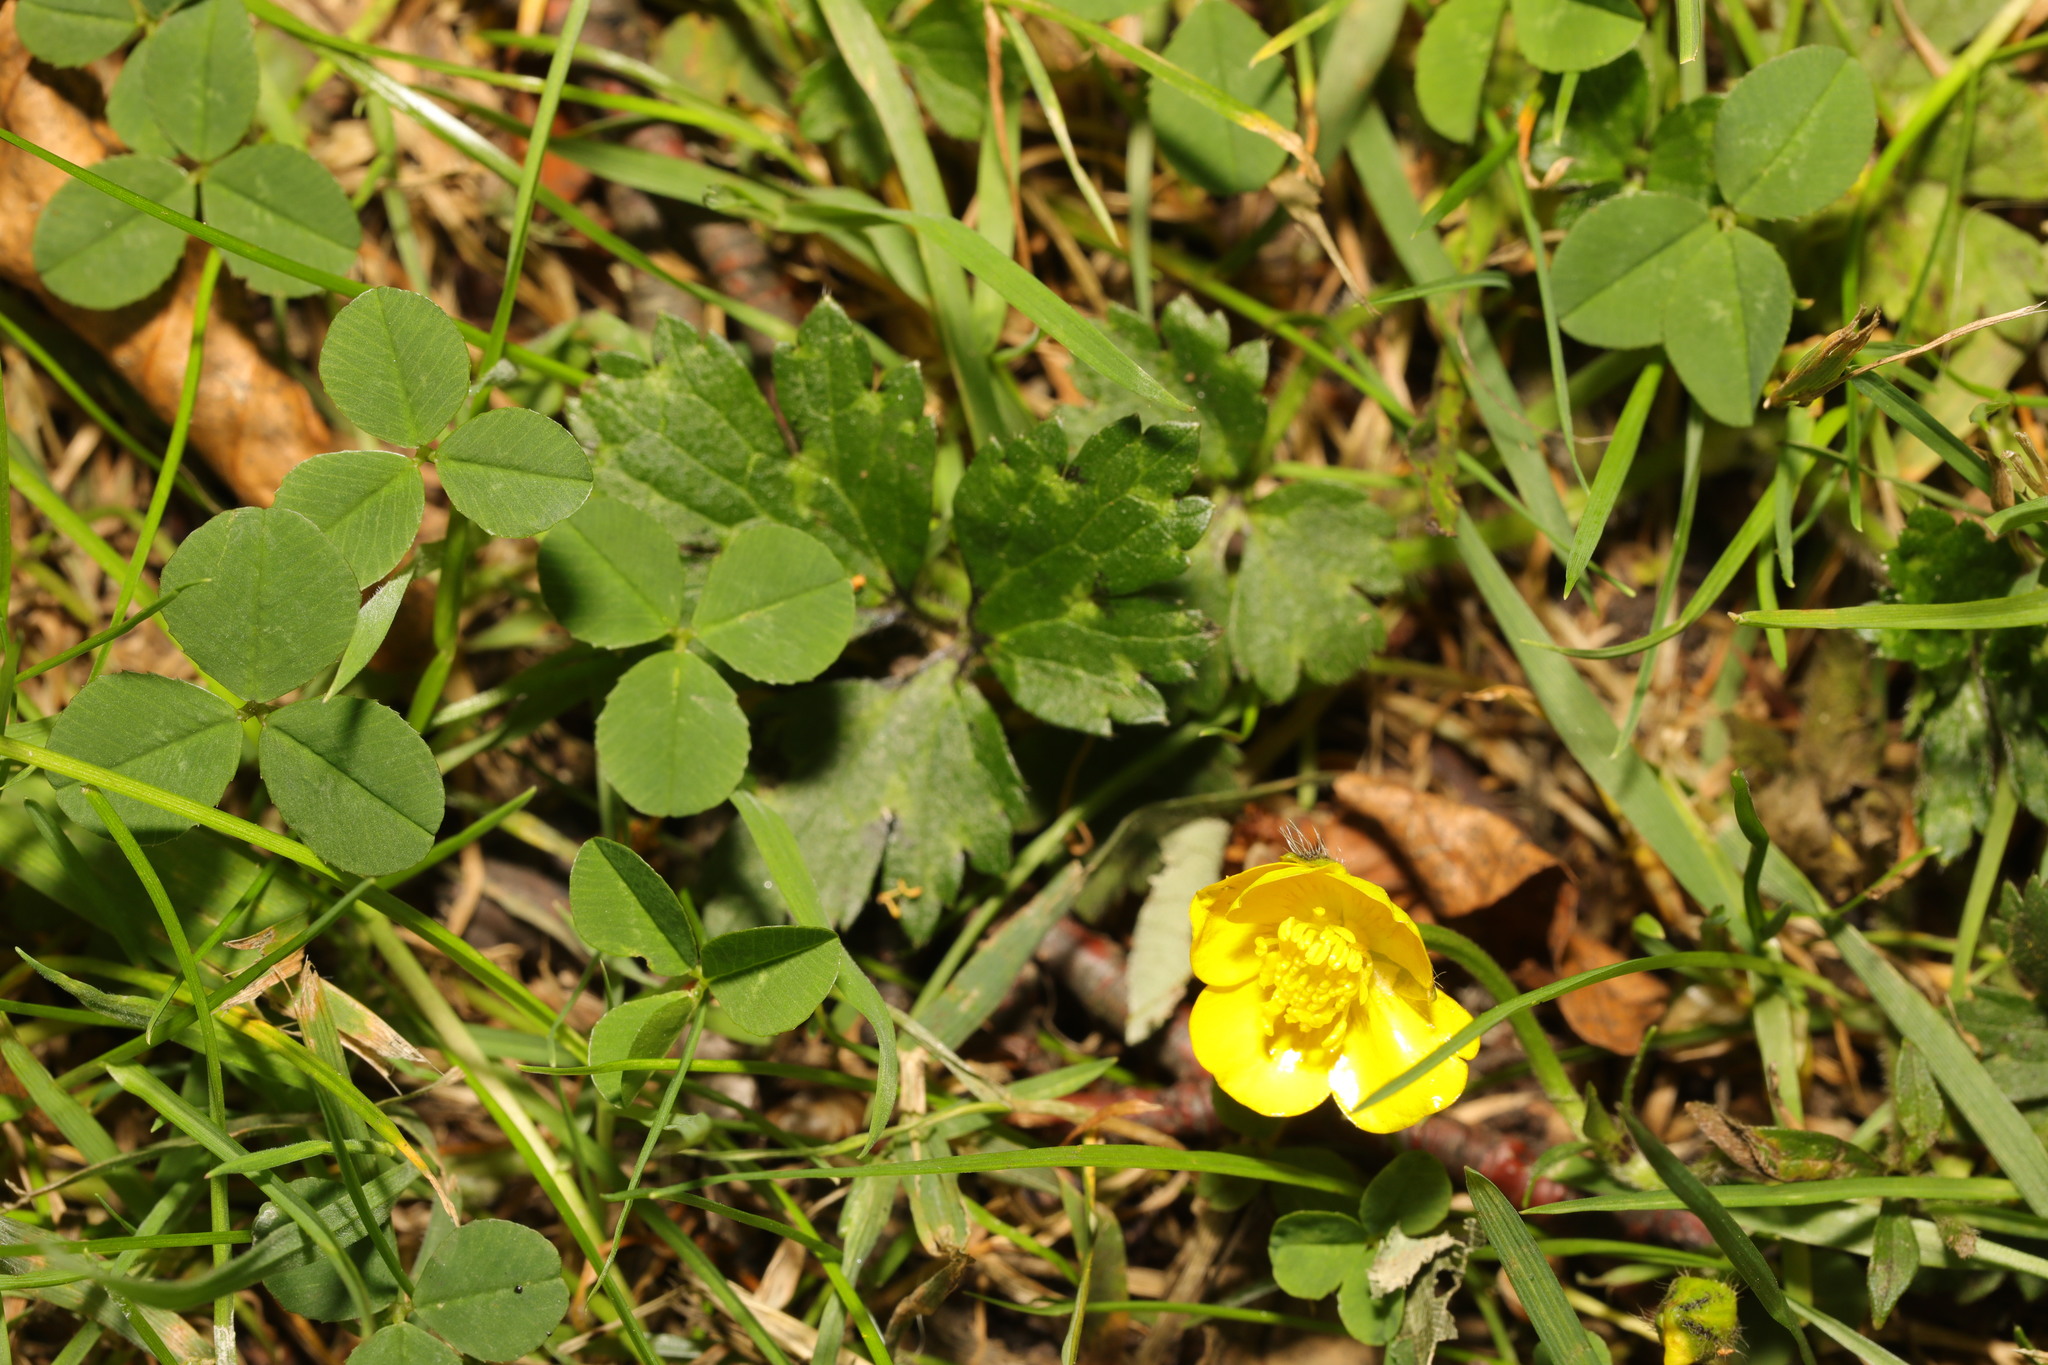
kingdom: Plantae
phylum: Tracheophyta
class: Magnoliopsida
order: Ranunculales
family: Ranunculaceae
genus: Ranunculus
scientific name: Ranunculus repens
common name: Creeping buttercup
